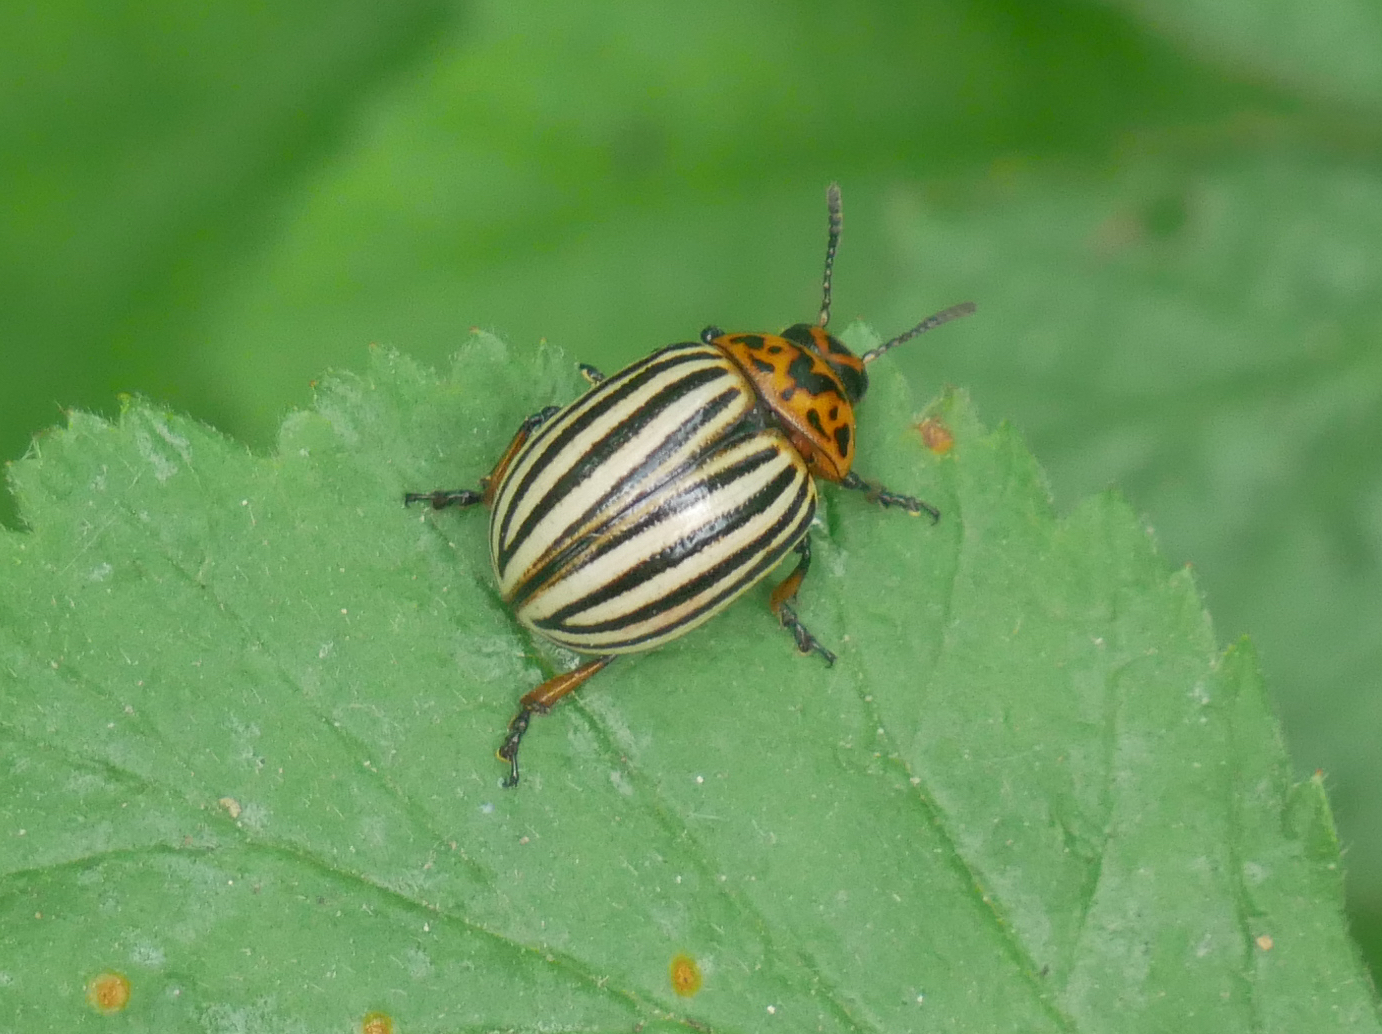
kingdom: Animalia
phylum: Arthropoda
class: Insecta
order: Coleoptera
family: Chrysomelidae
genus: Leptinotarsa
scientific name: Leptinotarsa decemlineata
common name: Colorado potato beetle
